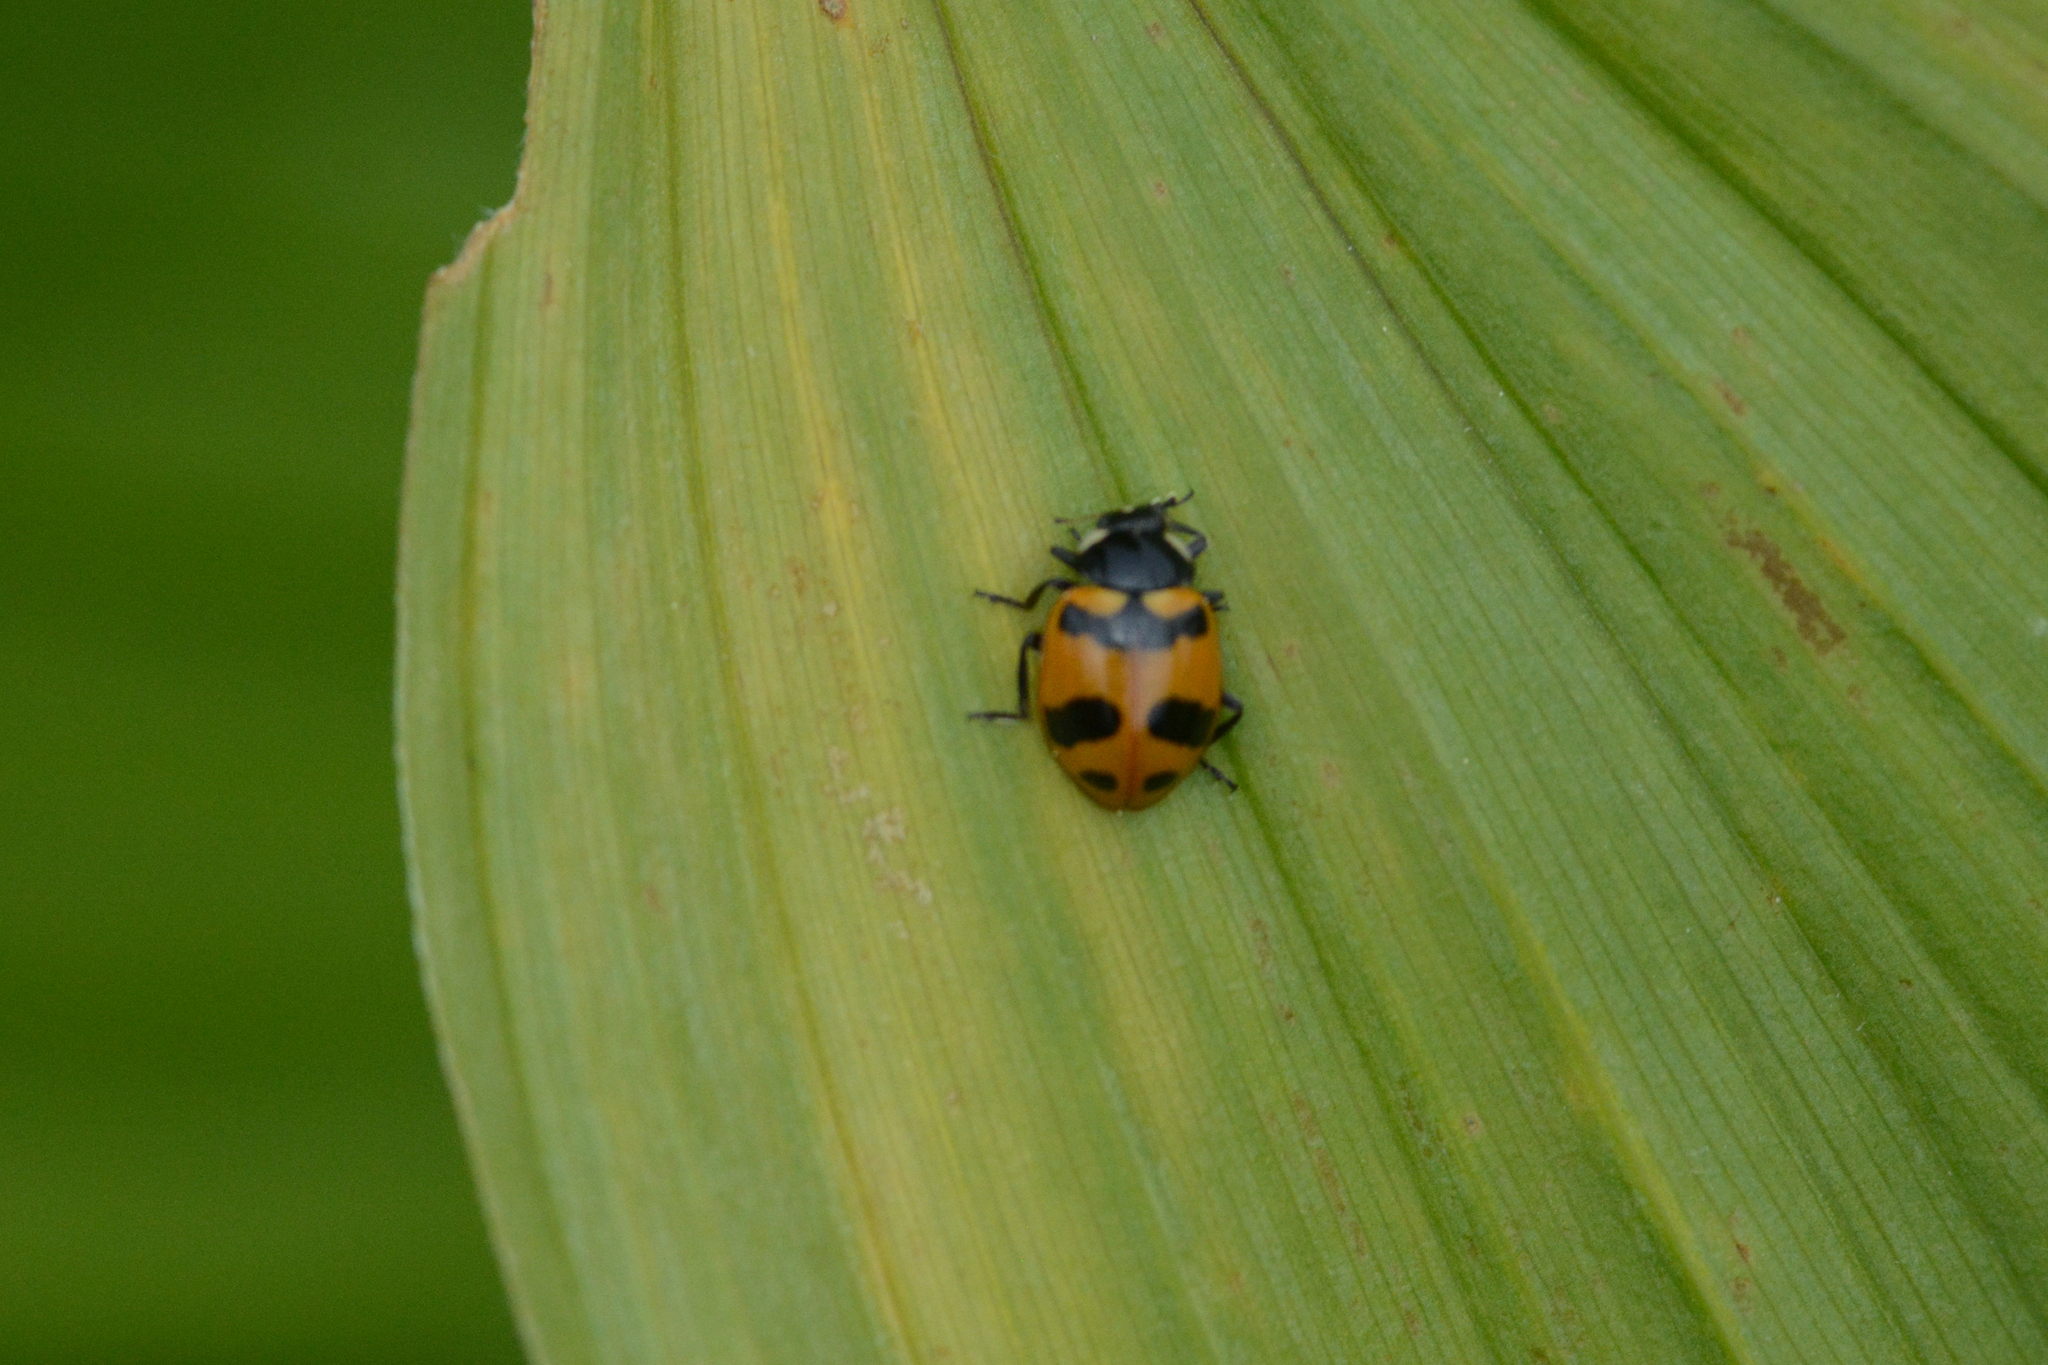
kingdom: Animalia
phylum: Arthropoda
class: Insecta
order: Coleoptera
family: Coccinellidae
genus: Hippodamia
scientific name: Hippodamia quinquesignata
